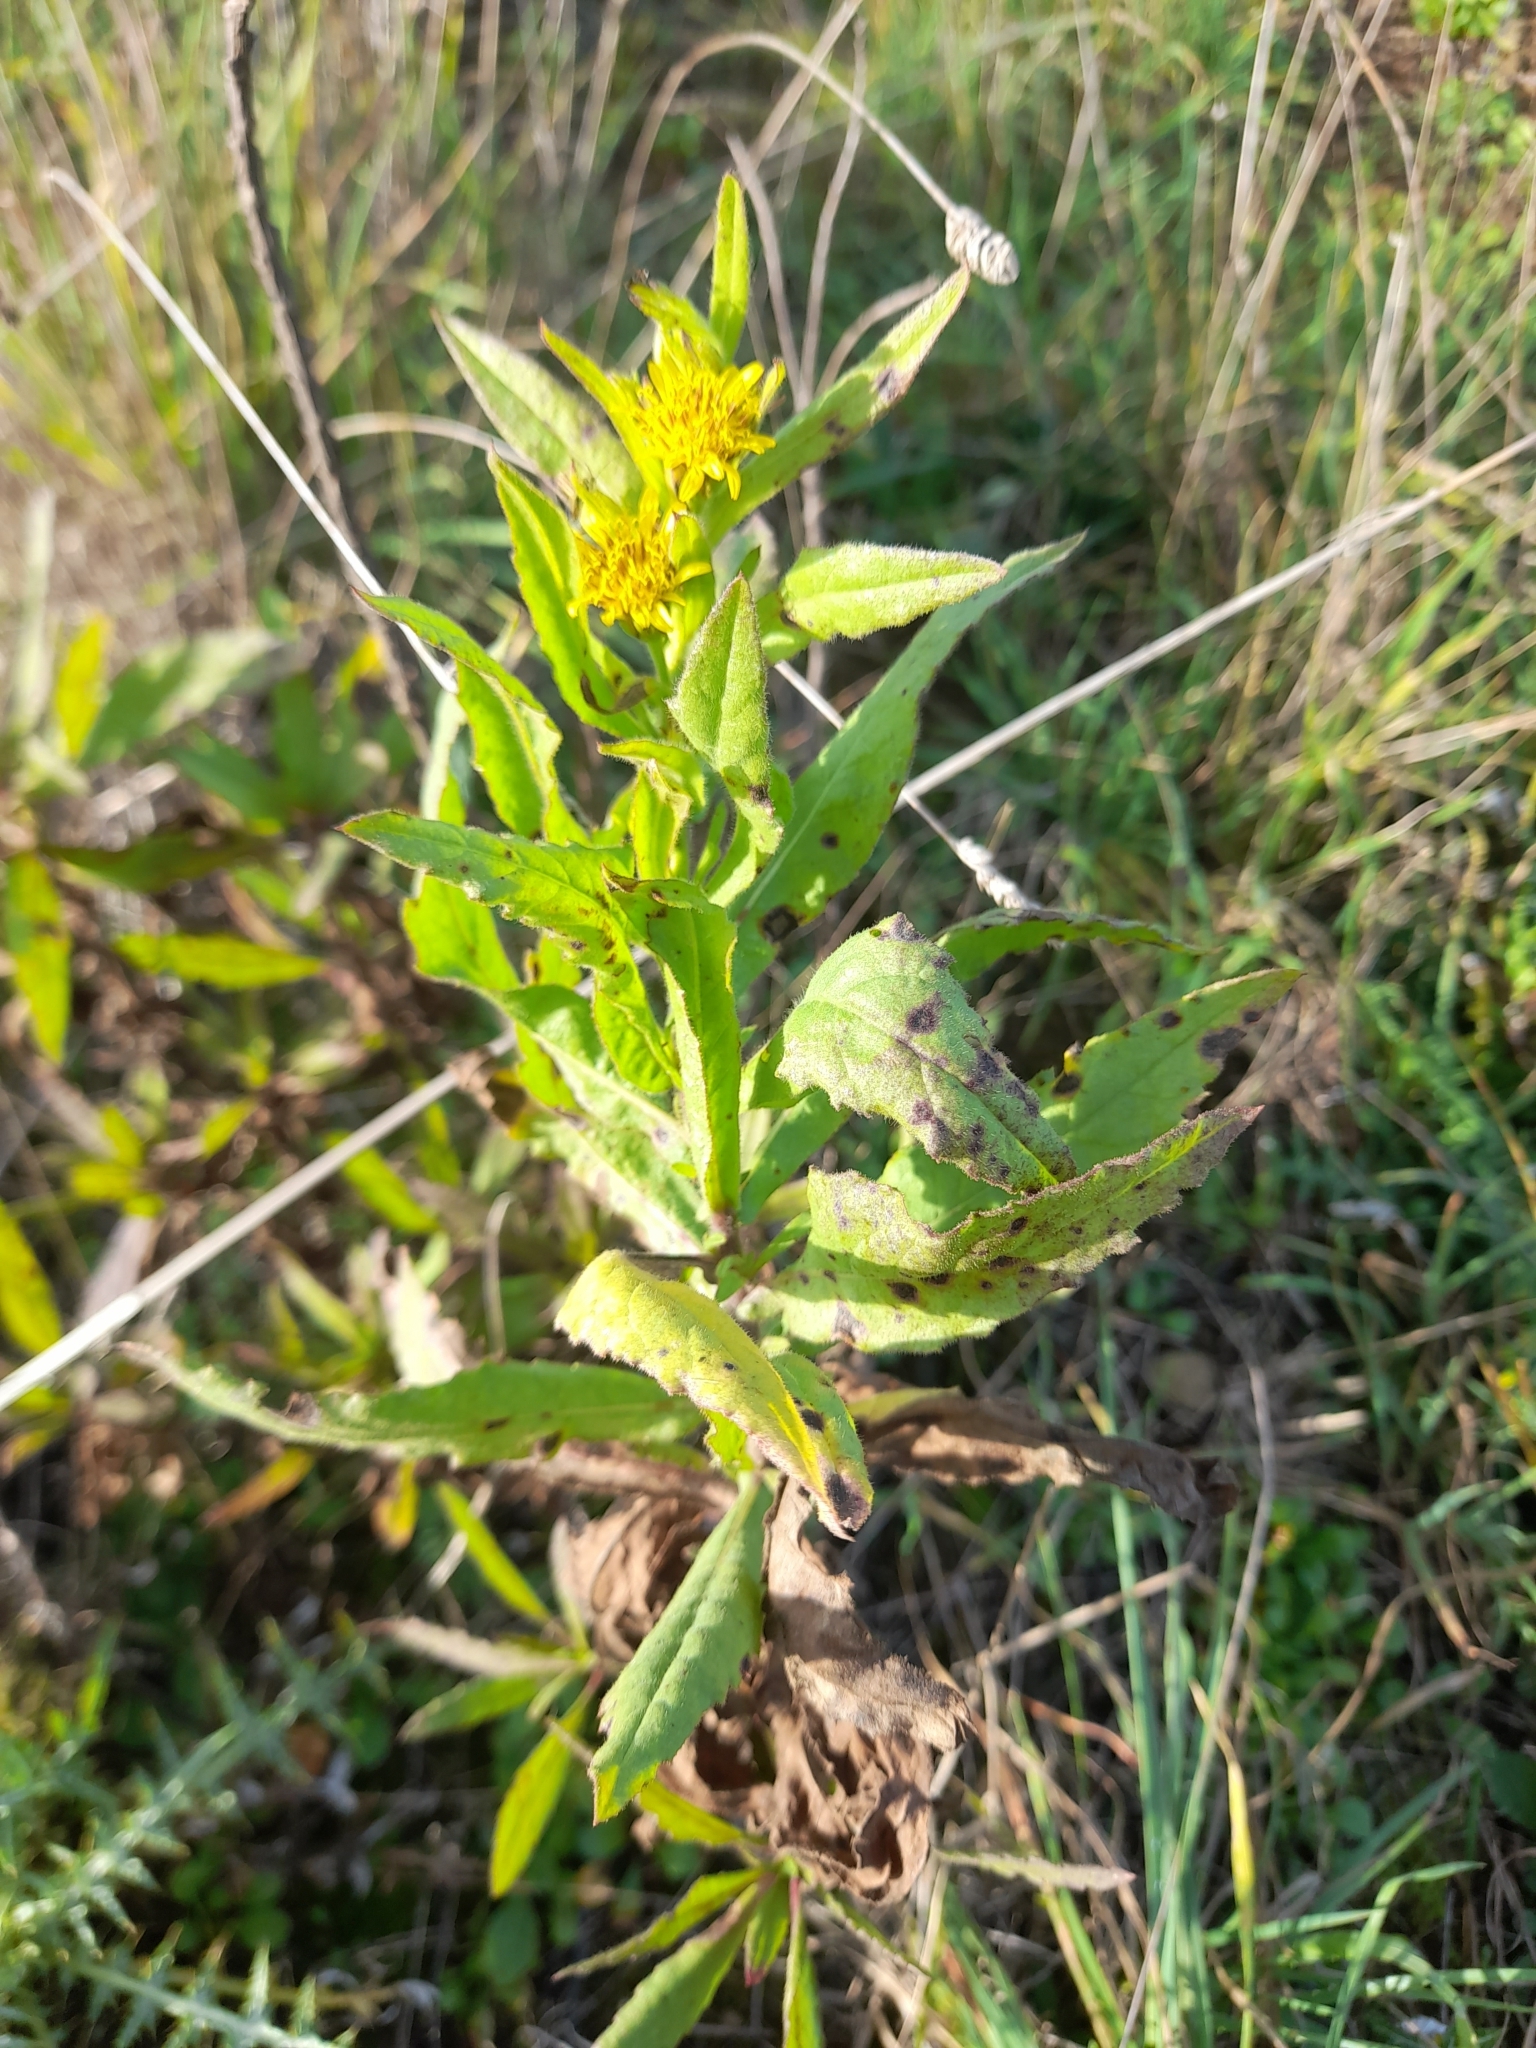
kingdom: Plantae
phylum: Tracheophyta
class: Magnoliopsida
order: Asterales
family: Asteraceae
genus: Dittrichia
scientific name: Dittrichia viscosa
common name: Woody fleabane
